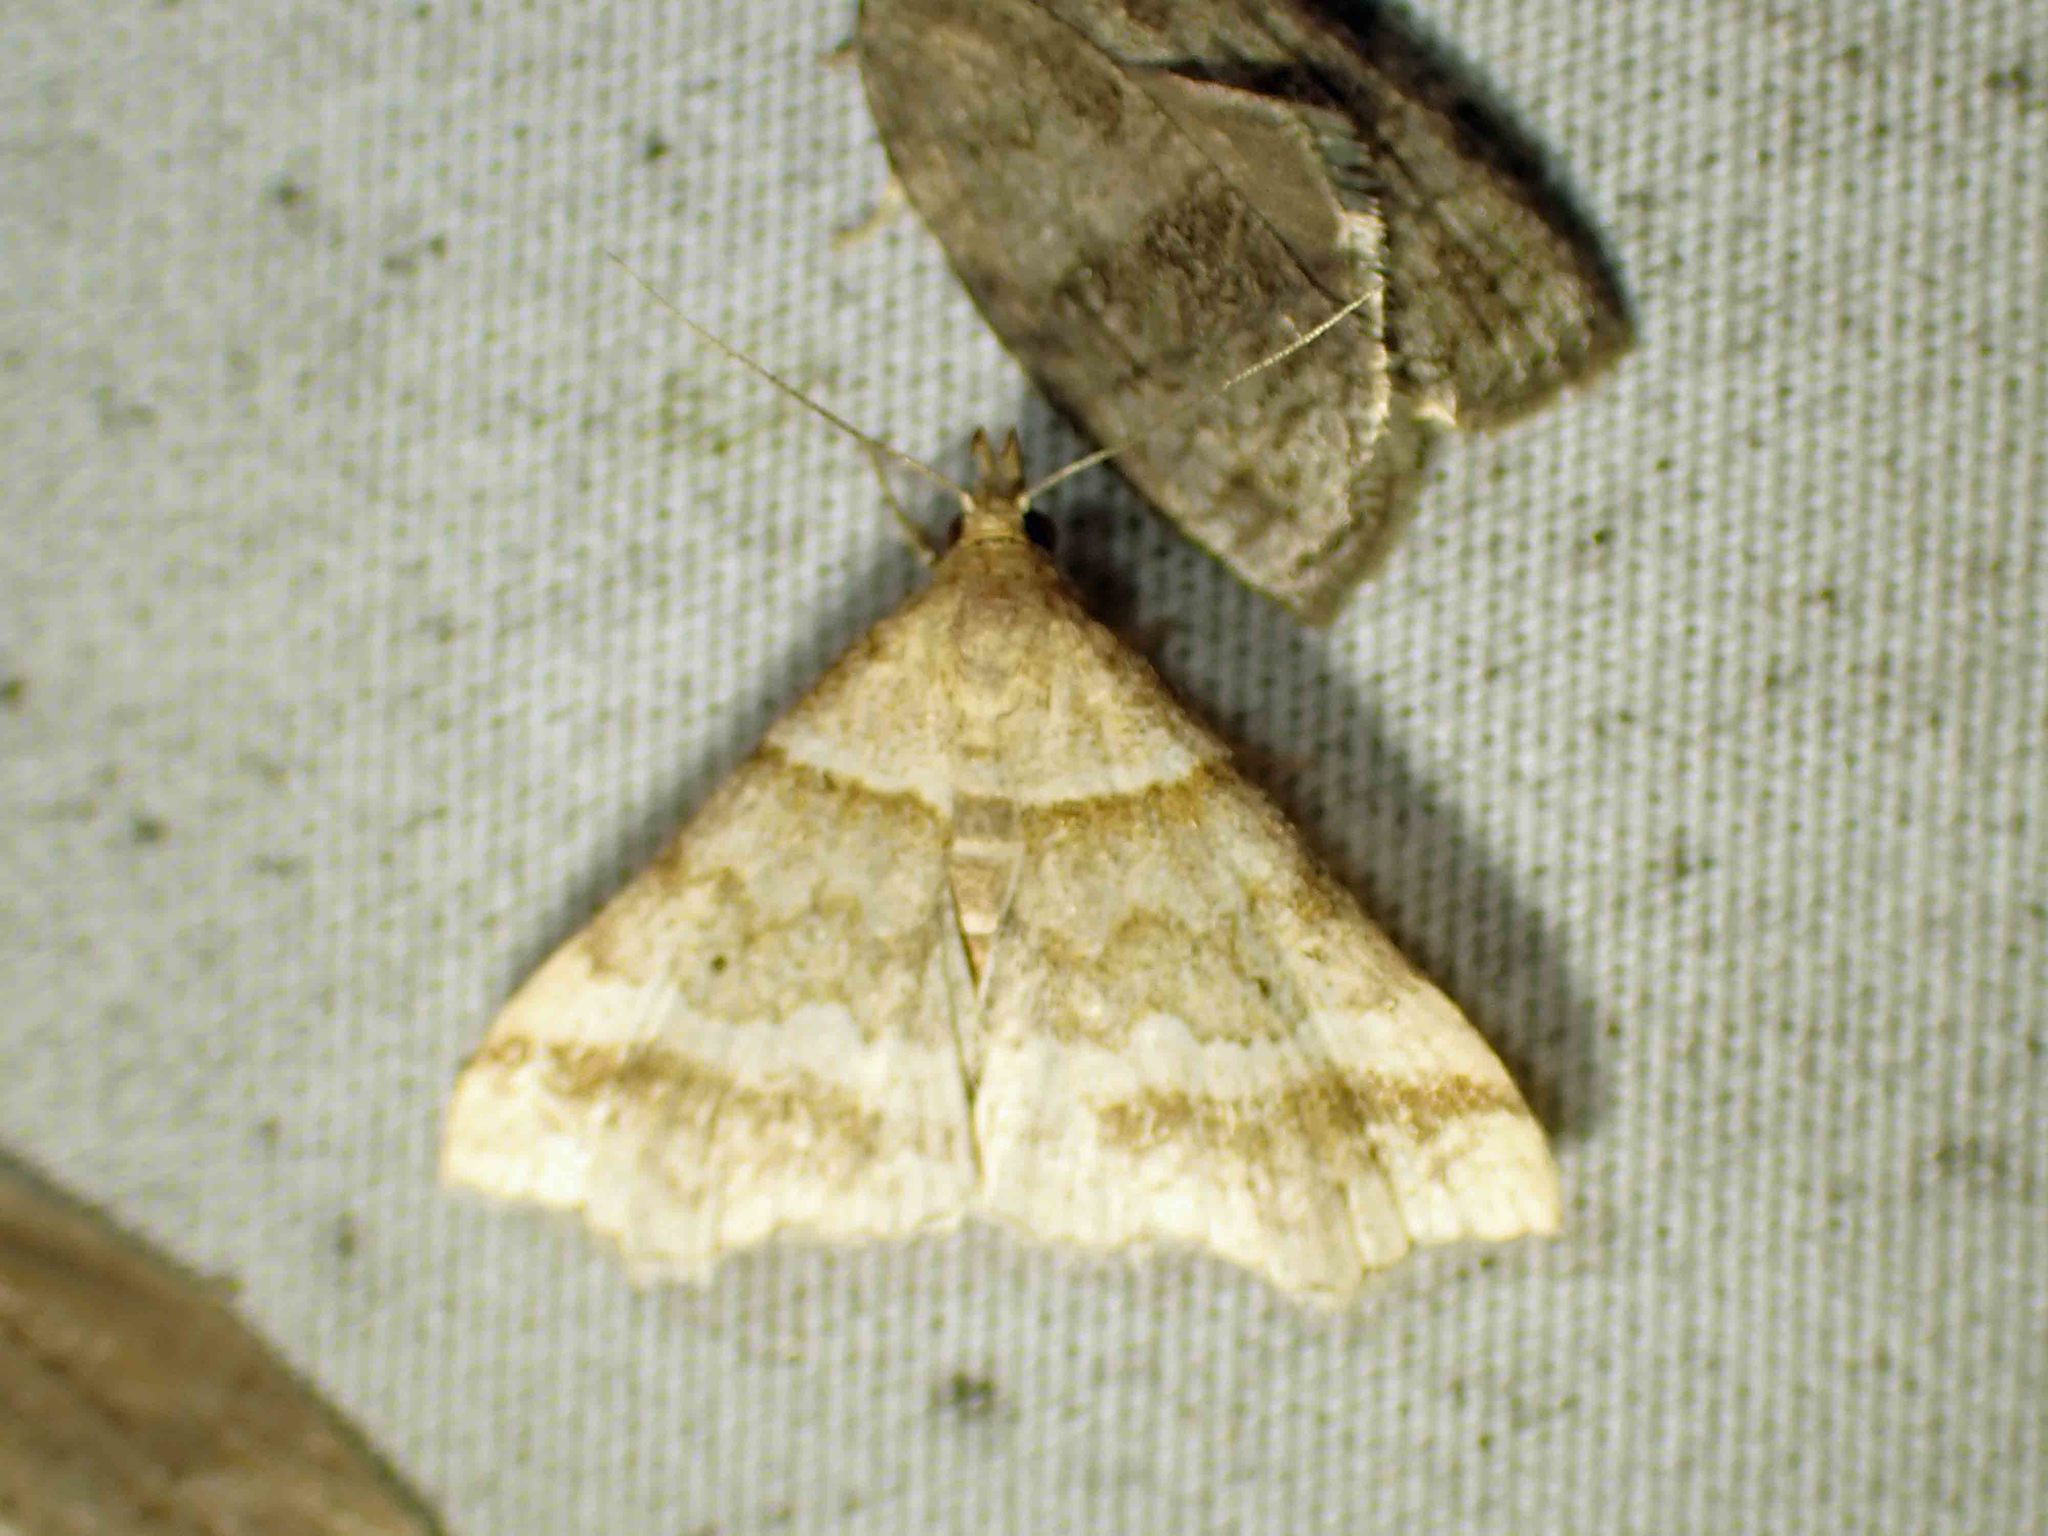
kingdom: Animalia
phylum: Arthropoda
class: Insecta
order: Lepidoptera
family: Erebidae
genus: Phaeolita
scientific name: Phaeolita pyramusalis
